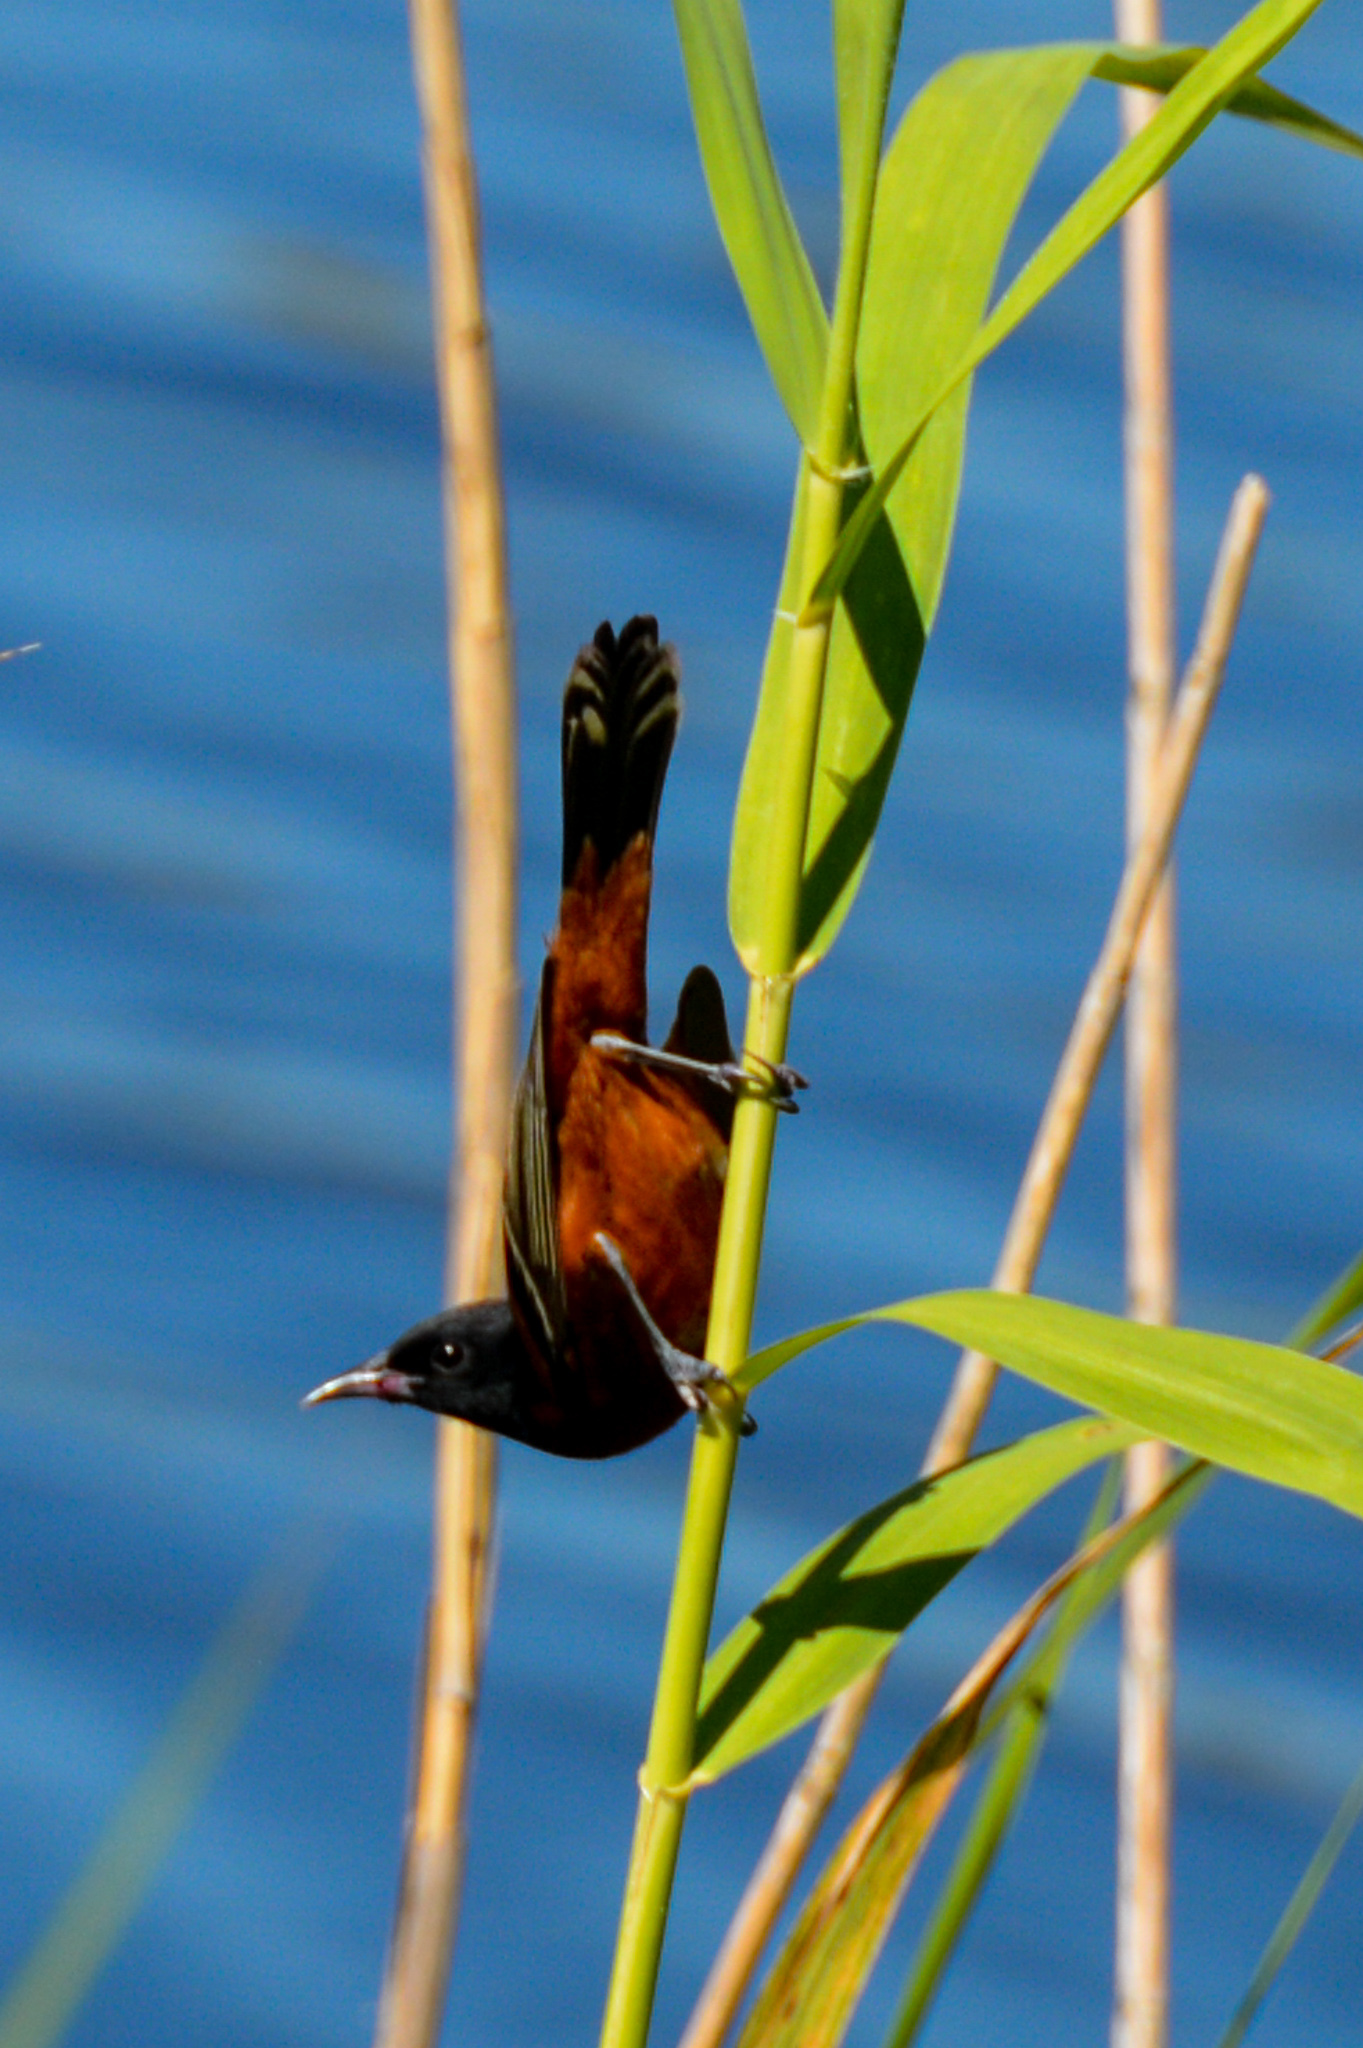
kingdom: Animalia
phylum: Chordata
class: Aves
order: Passeriformes
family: Icteridae
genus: Icterus
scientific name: Icterus spurius
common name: Orchard oriole
